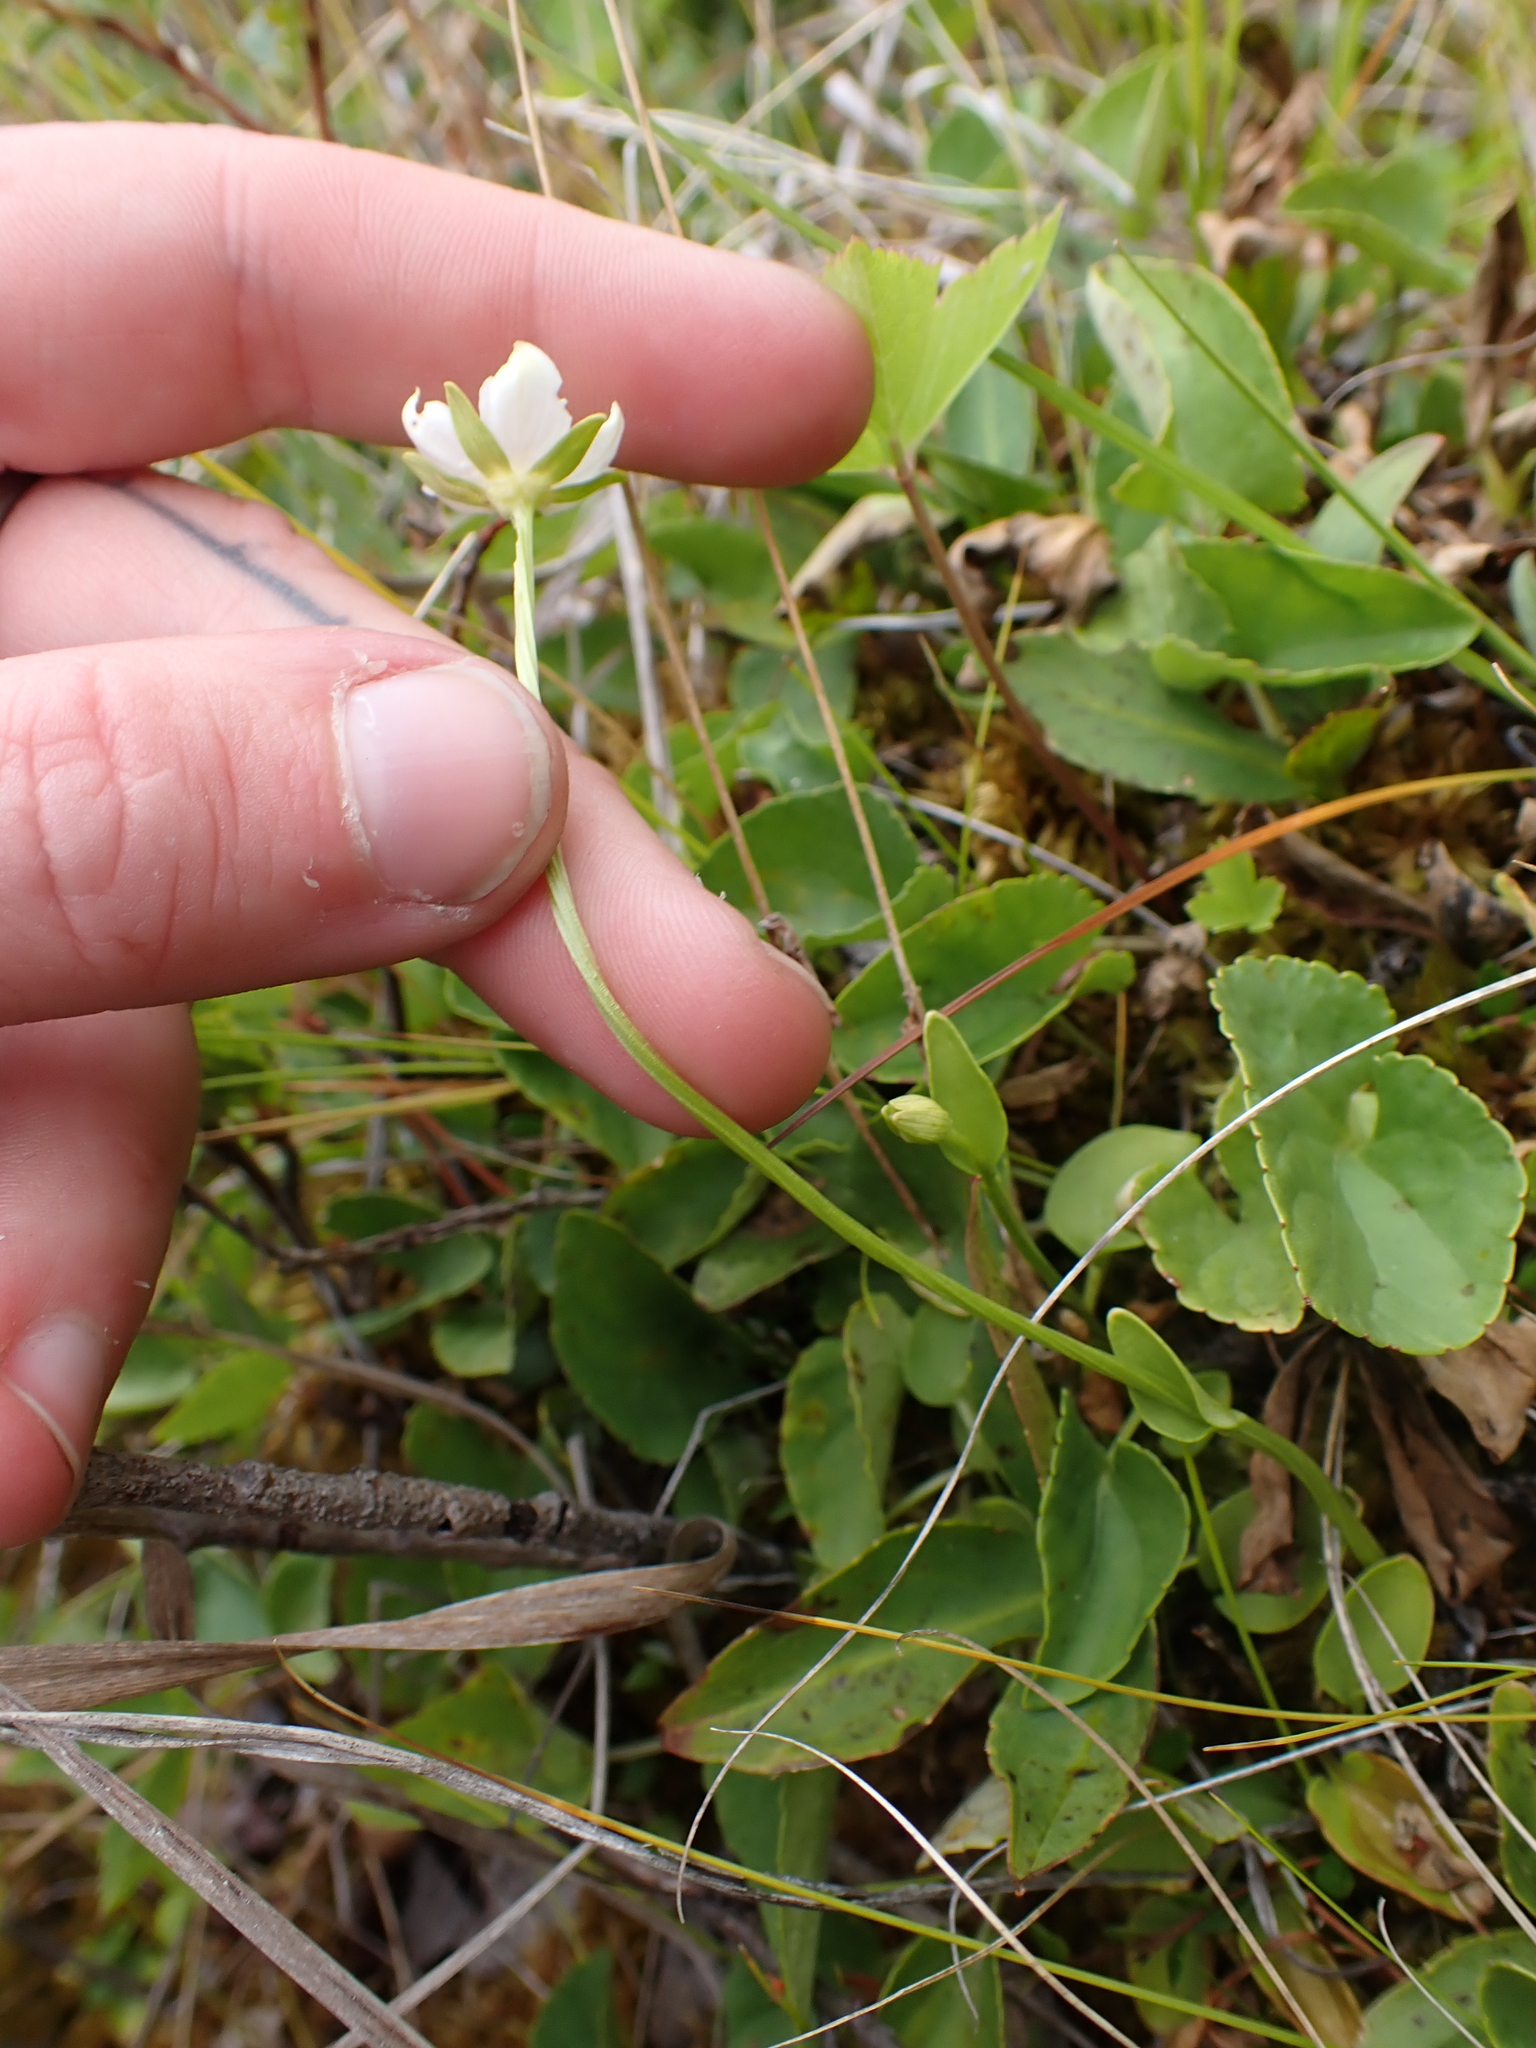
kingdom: Plantae
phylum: Tracheophyta
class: Magnoliopsida
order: Celastrales
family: Parnassiaceae
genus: Parnassia
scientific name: Parnassia palustris
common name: Grass-of-parnassus
